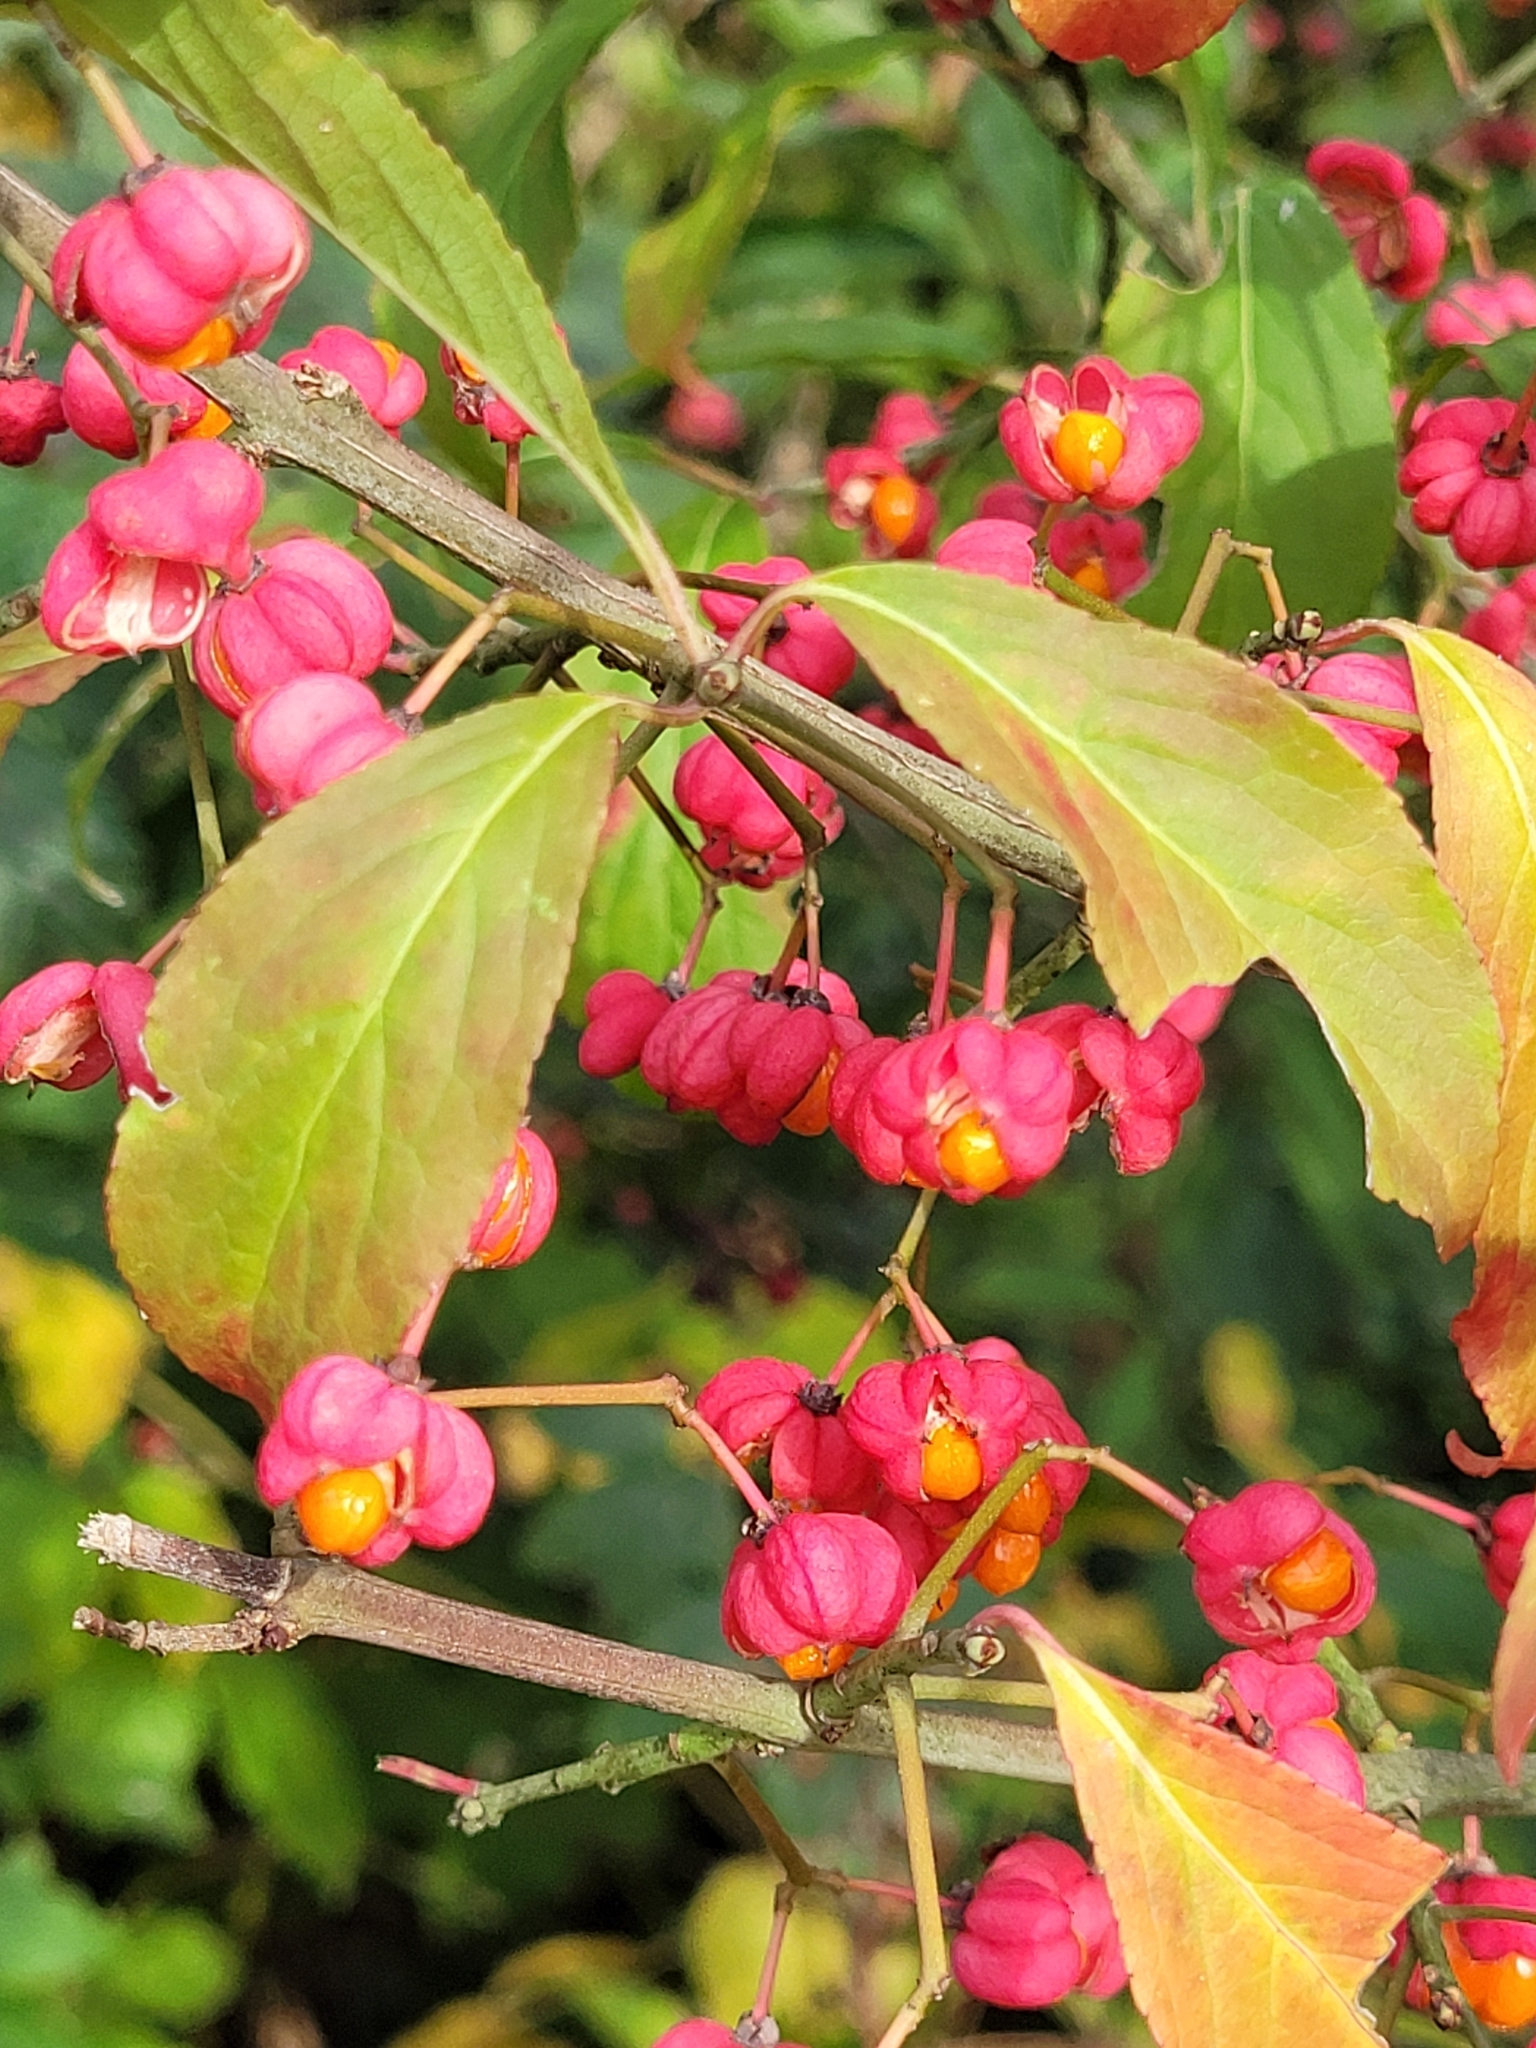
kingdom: Plantae
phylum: Tracheophyta
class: Magnoliopsida
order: Celastrales
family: Celastraceae
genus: Euonymus
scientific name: Euonymus europaeus
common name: Spindle
